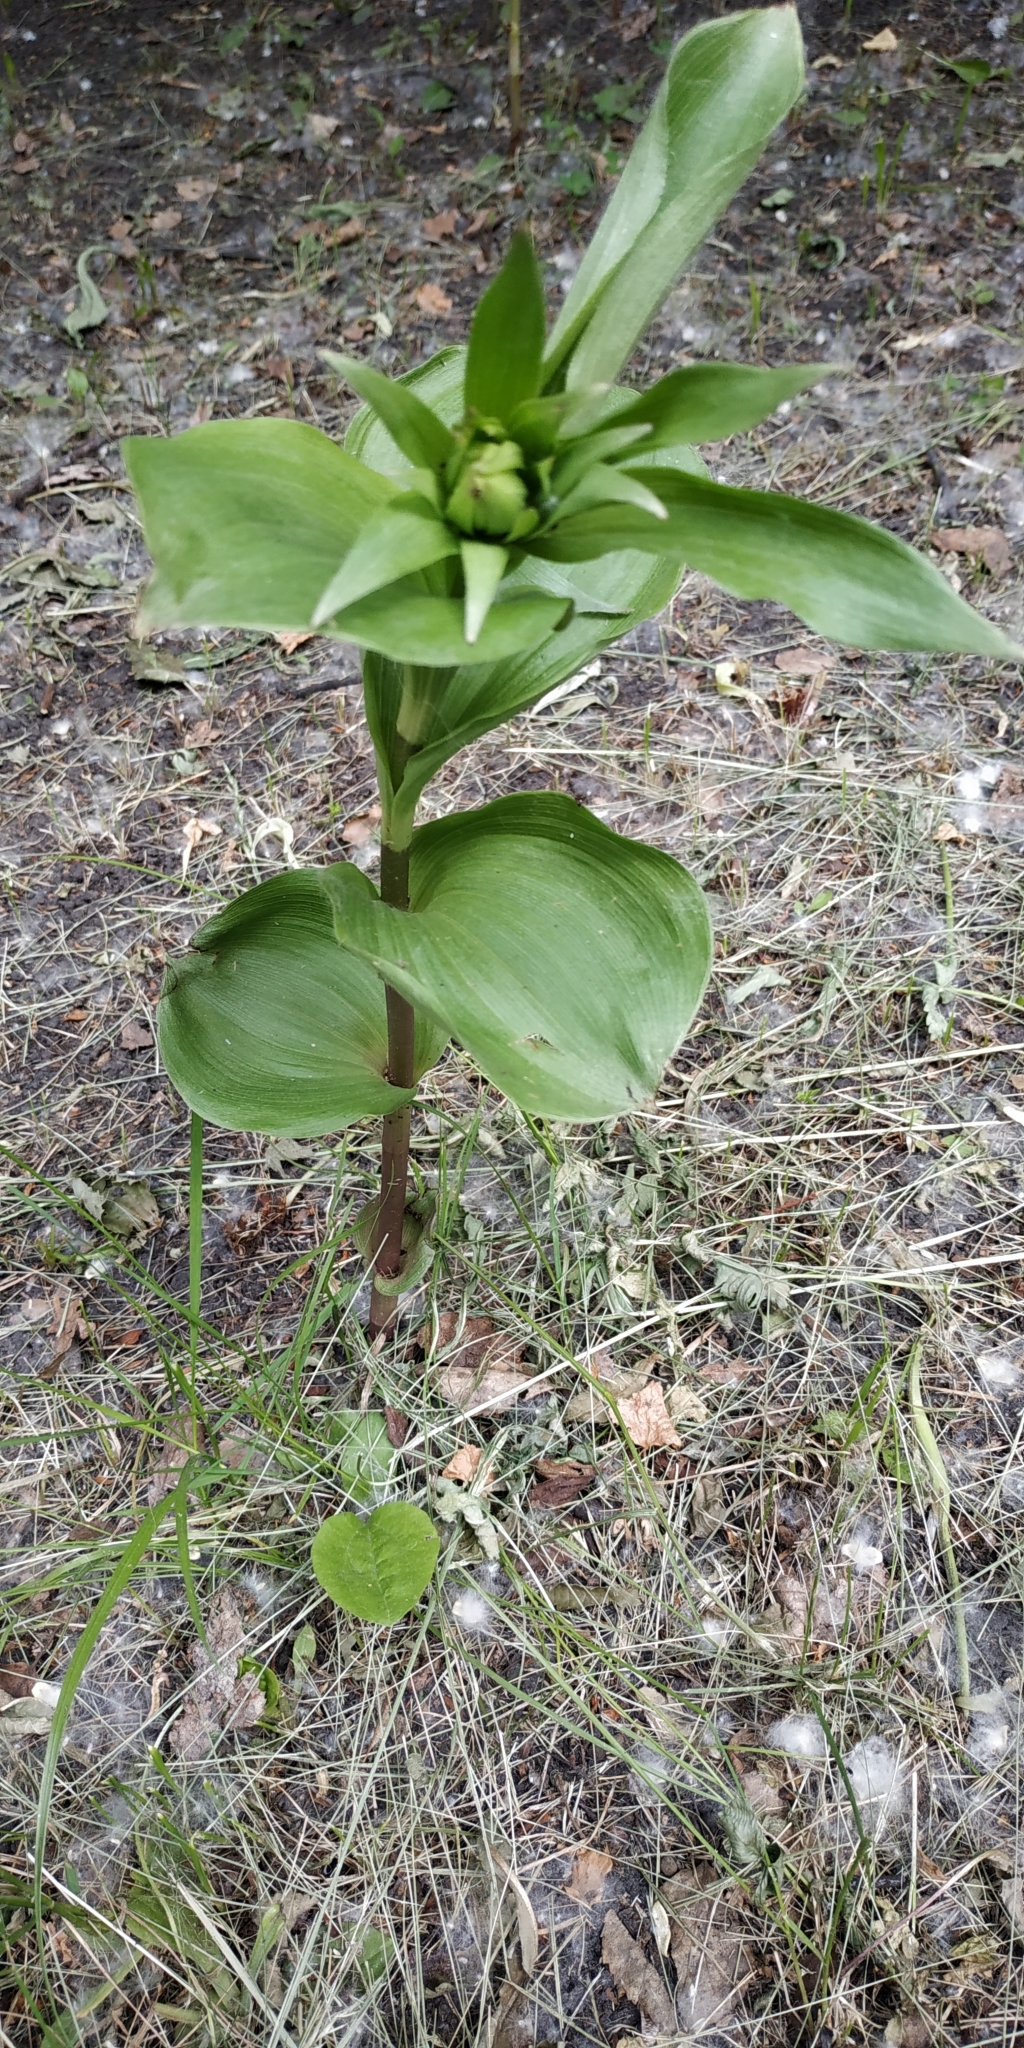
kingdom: Plantae
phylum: Tracheophyta
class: Liliopsida
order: Asparagales
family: Orchidaceae
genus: Epipactis
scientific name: Epipactis helleborine
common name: Broad-leaved helleborine
